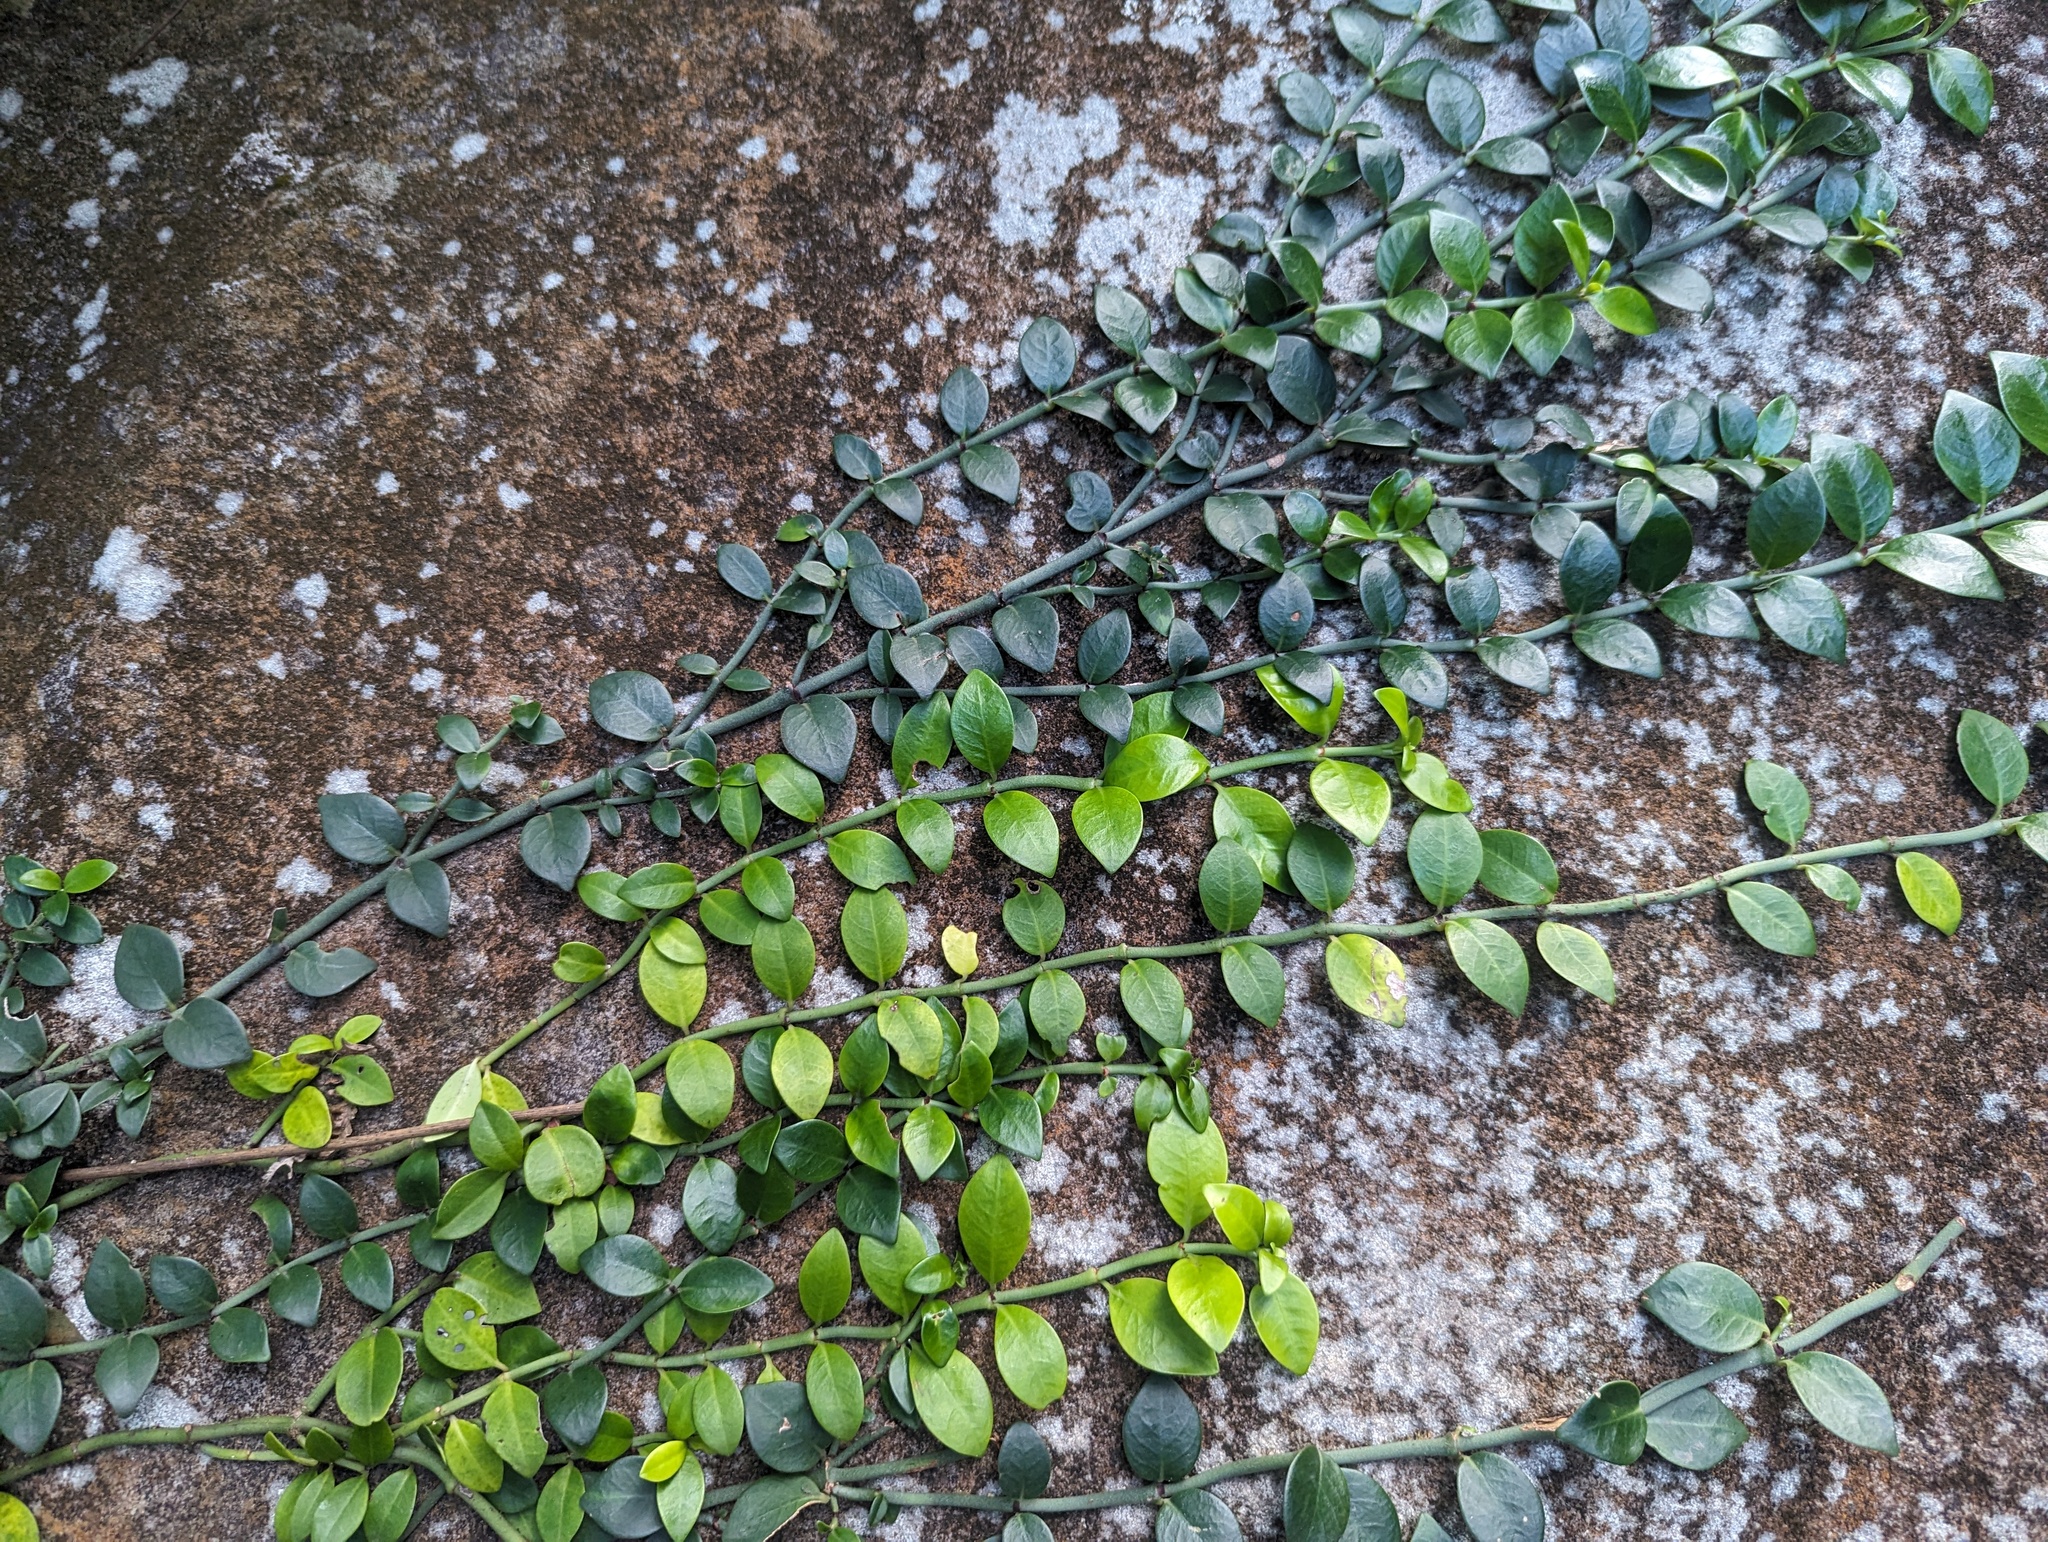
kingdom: Plantae
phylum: Tracheophyta
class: Magnoliopsida
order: Gentianales
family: Rubiaceae
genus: Psychotria
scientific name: Psychotria serpens
